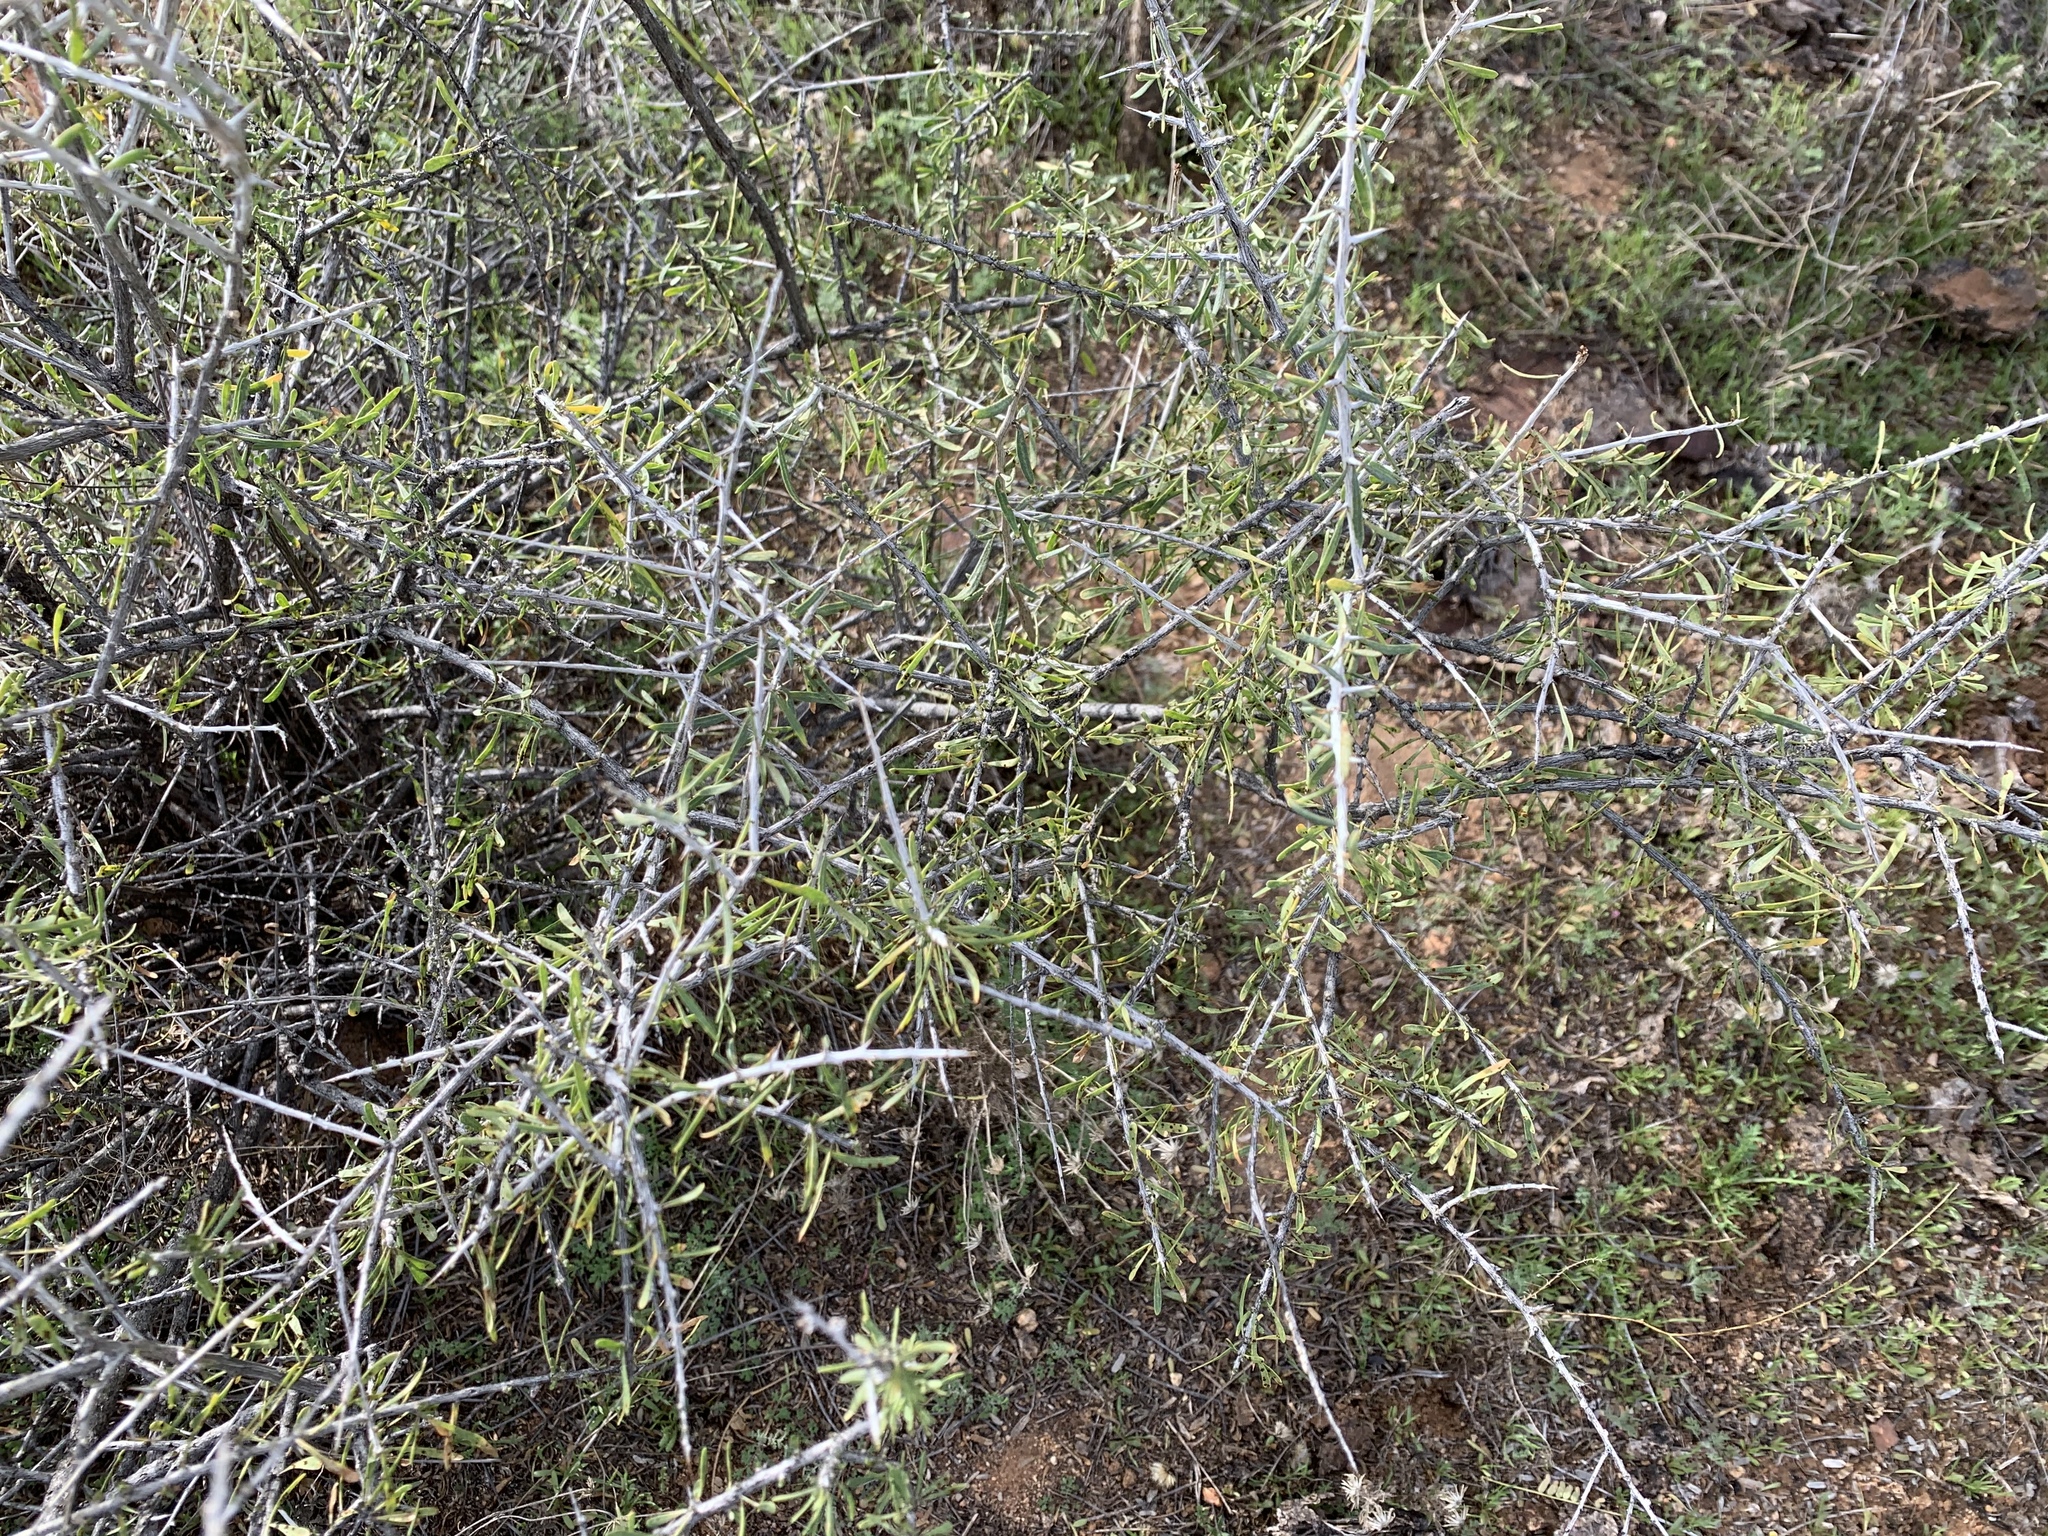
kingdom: Plantae
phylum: Tracheophyta
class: Magnoliopsida
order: Solanales
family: Solanaceae
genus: Lycium
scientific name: Lycium andersonii
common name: Water-jacket
